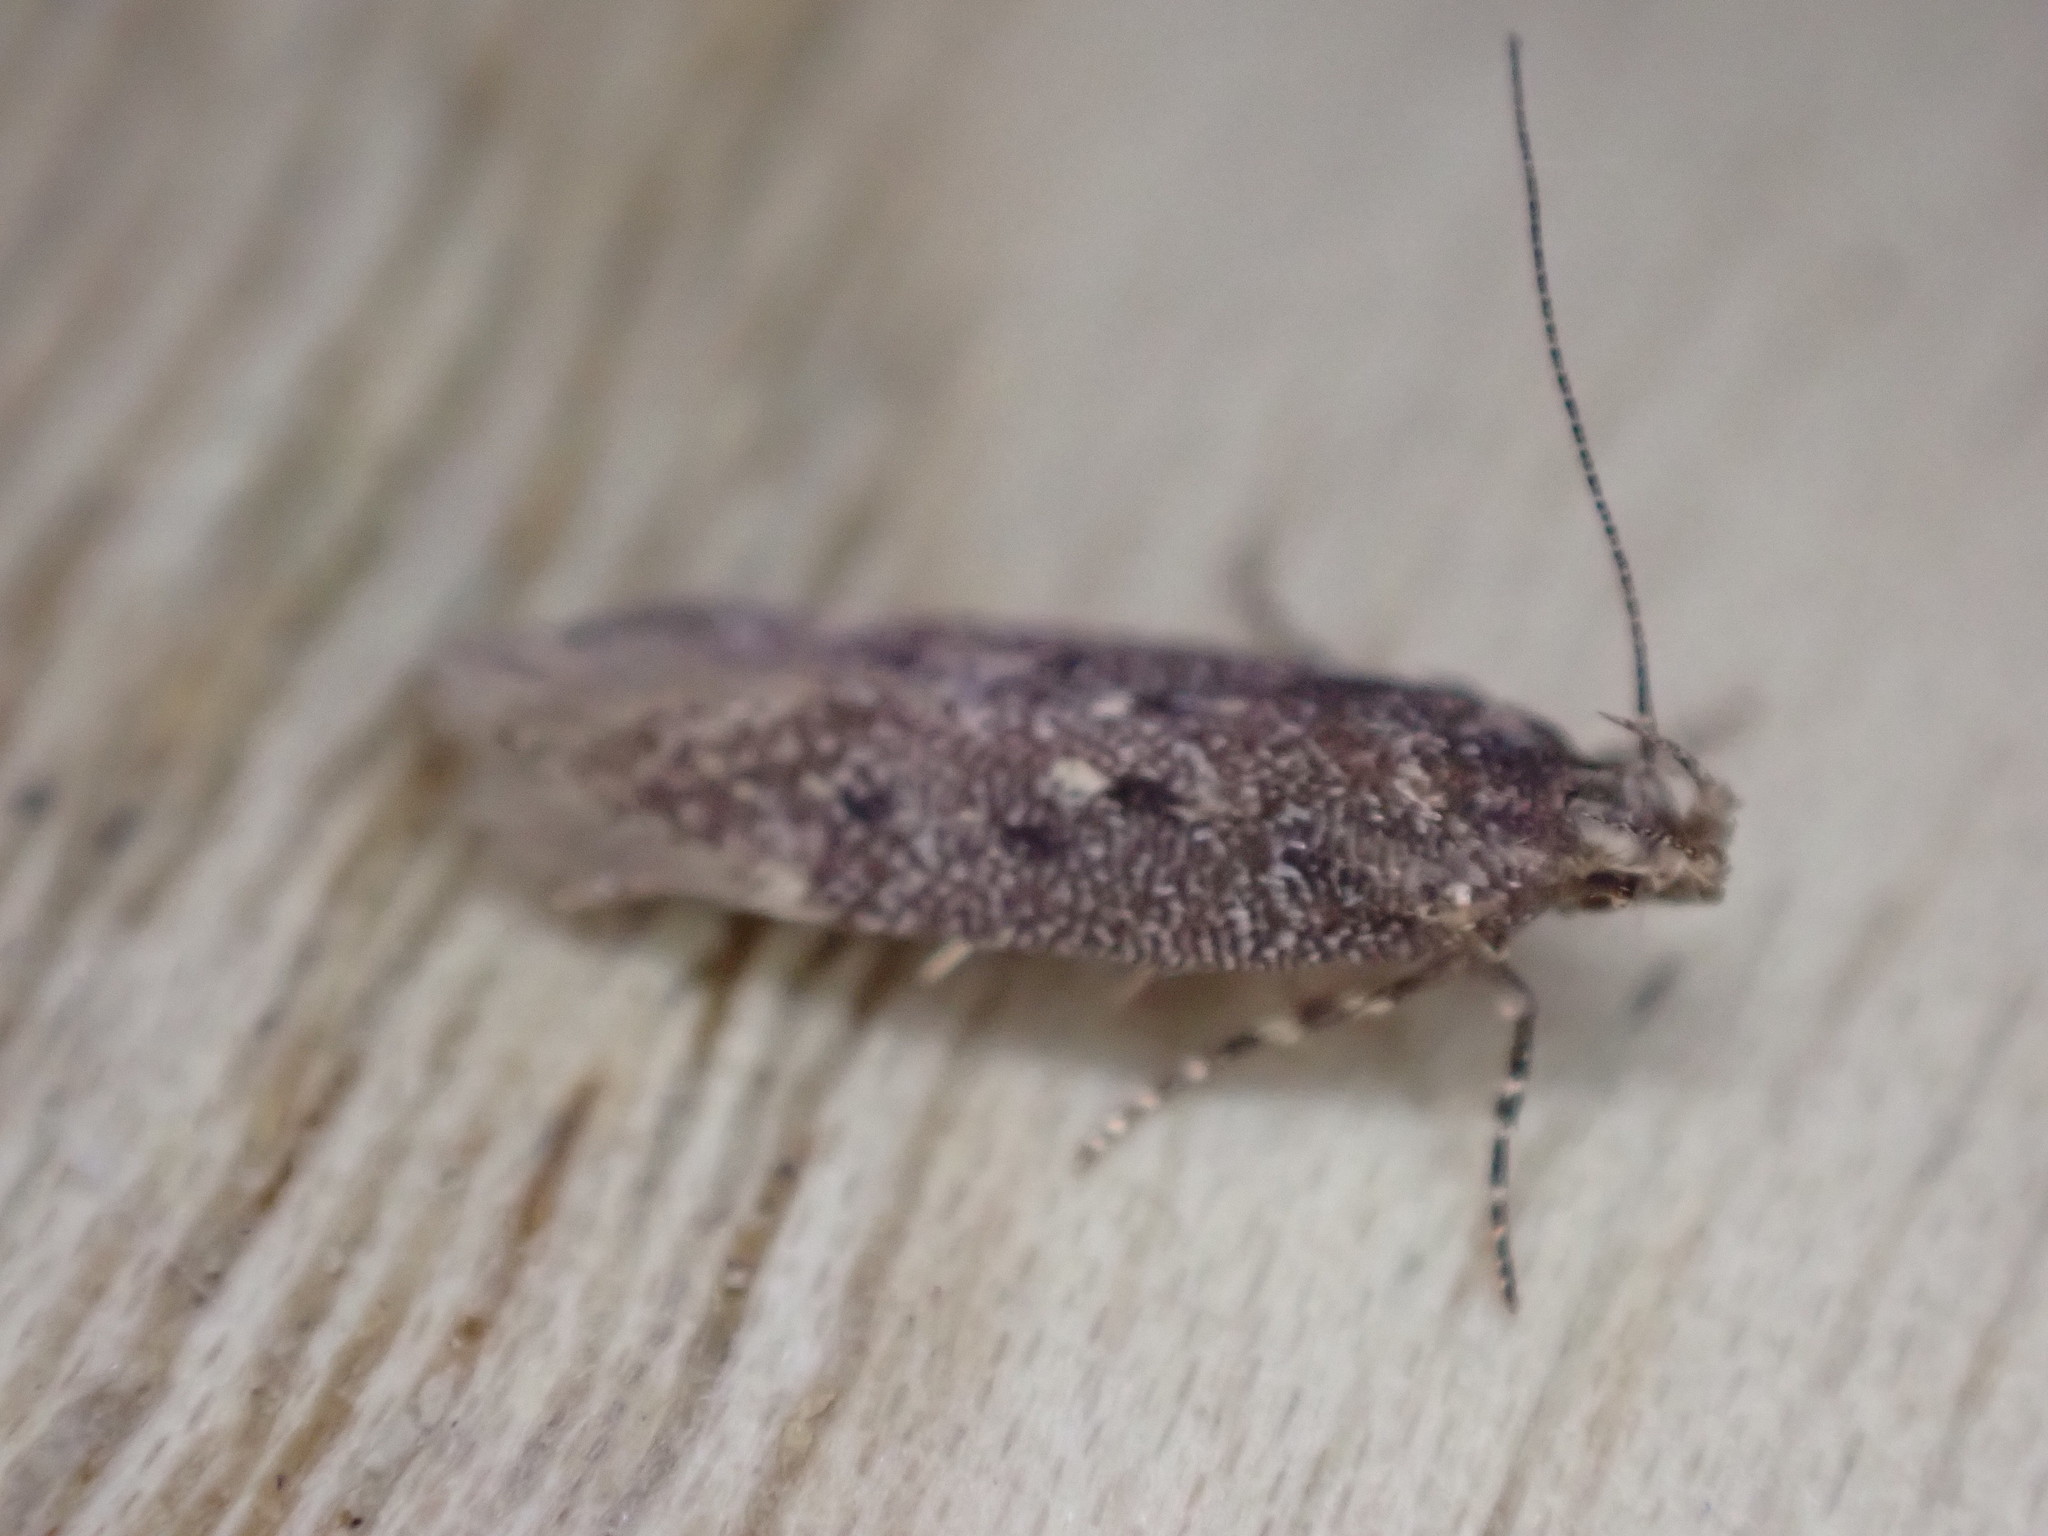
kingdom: Animalia
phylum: Arthropoda
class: Insecta
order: Lepidoptera
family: Gelechiidae
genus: Bryotropha
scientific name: Bryotropha affinis
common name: Dark groundling
